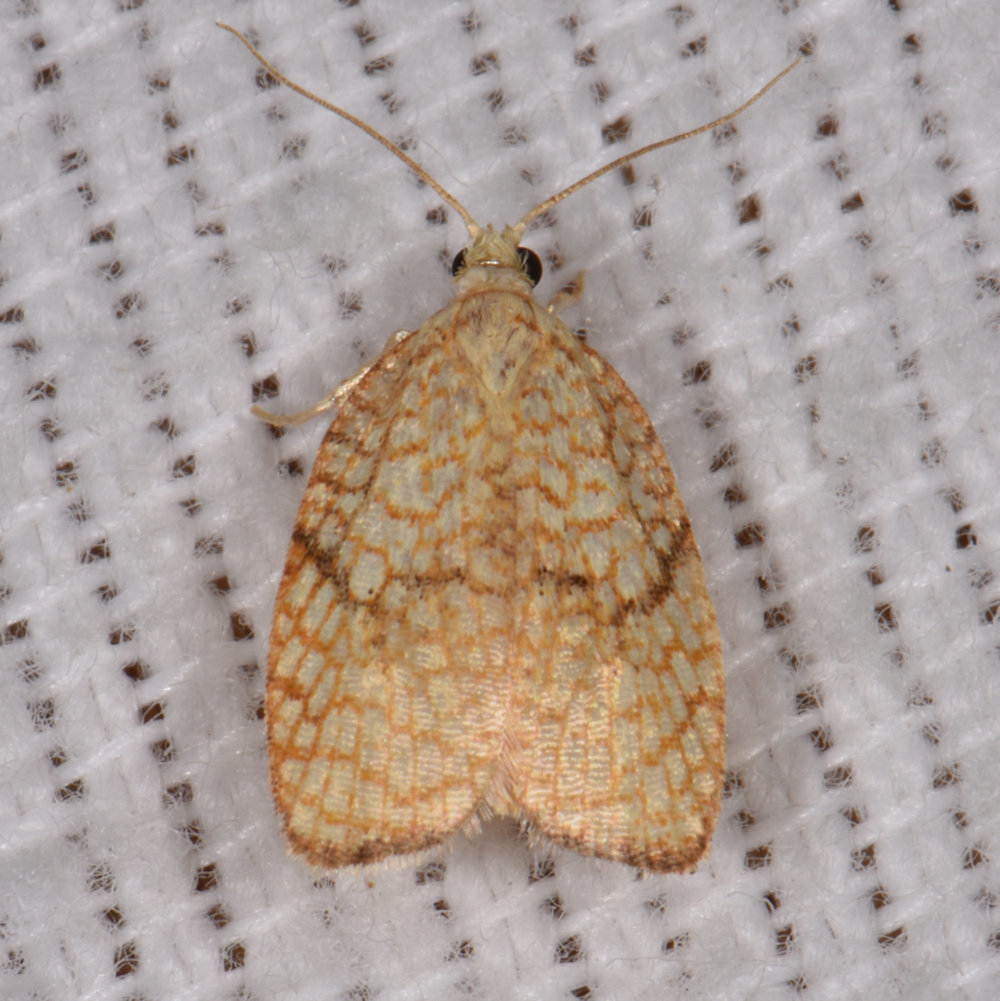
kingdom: Animalia
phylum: Arthropoda
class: Insecta
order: Lepidoptera
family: Tortricidae
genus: Acleris
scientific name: Acleris forsskaleana
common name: Maple button
